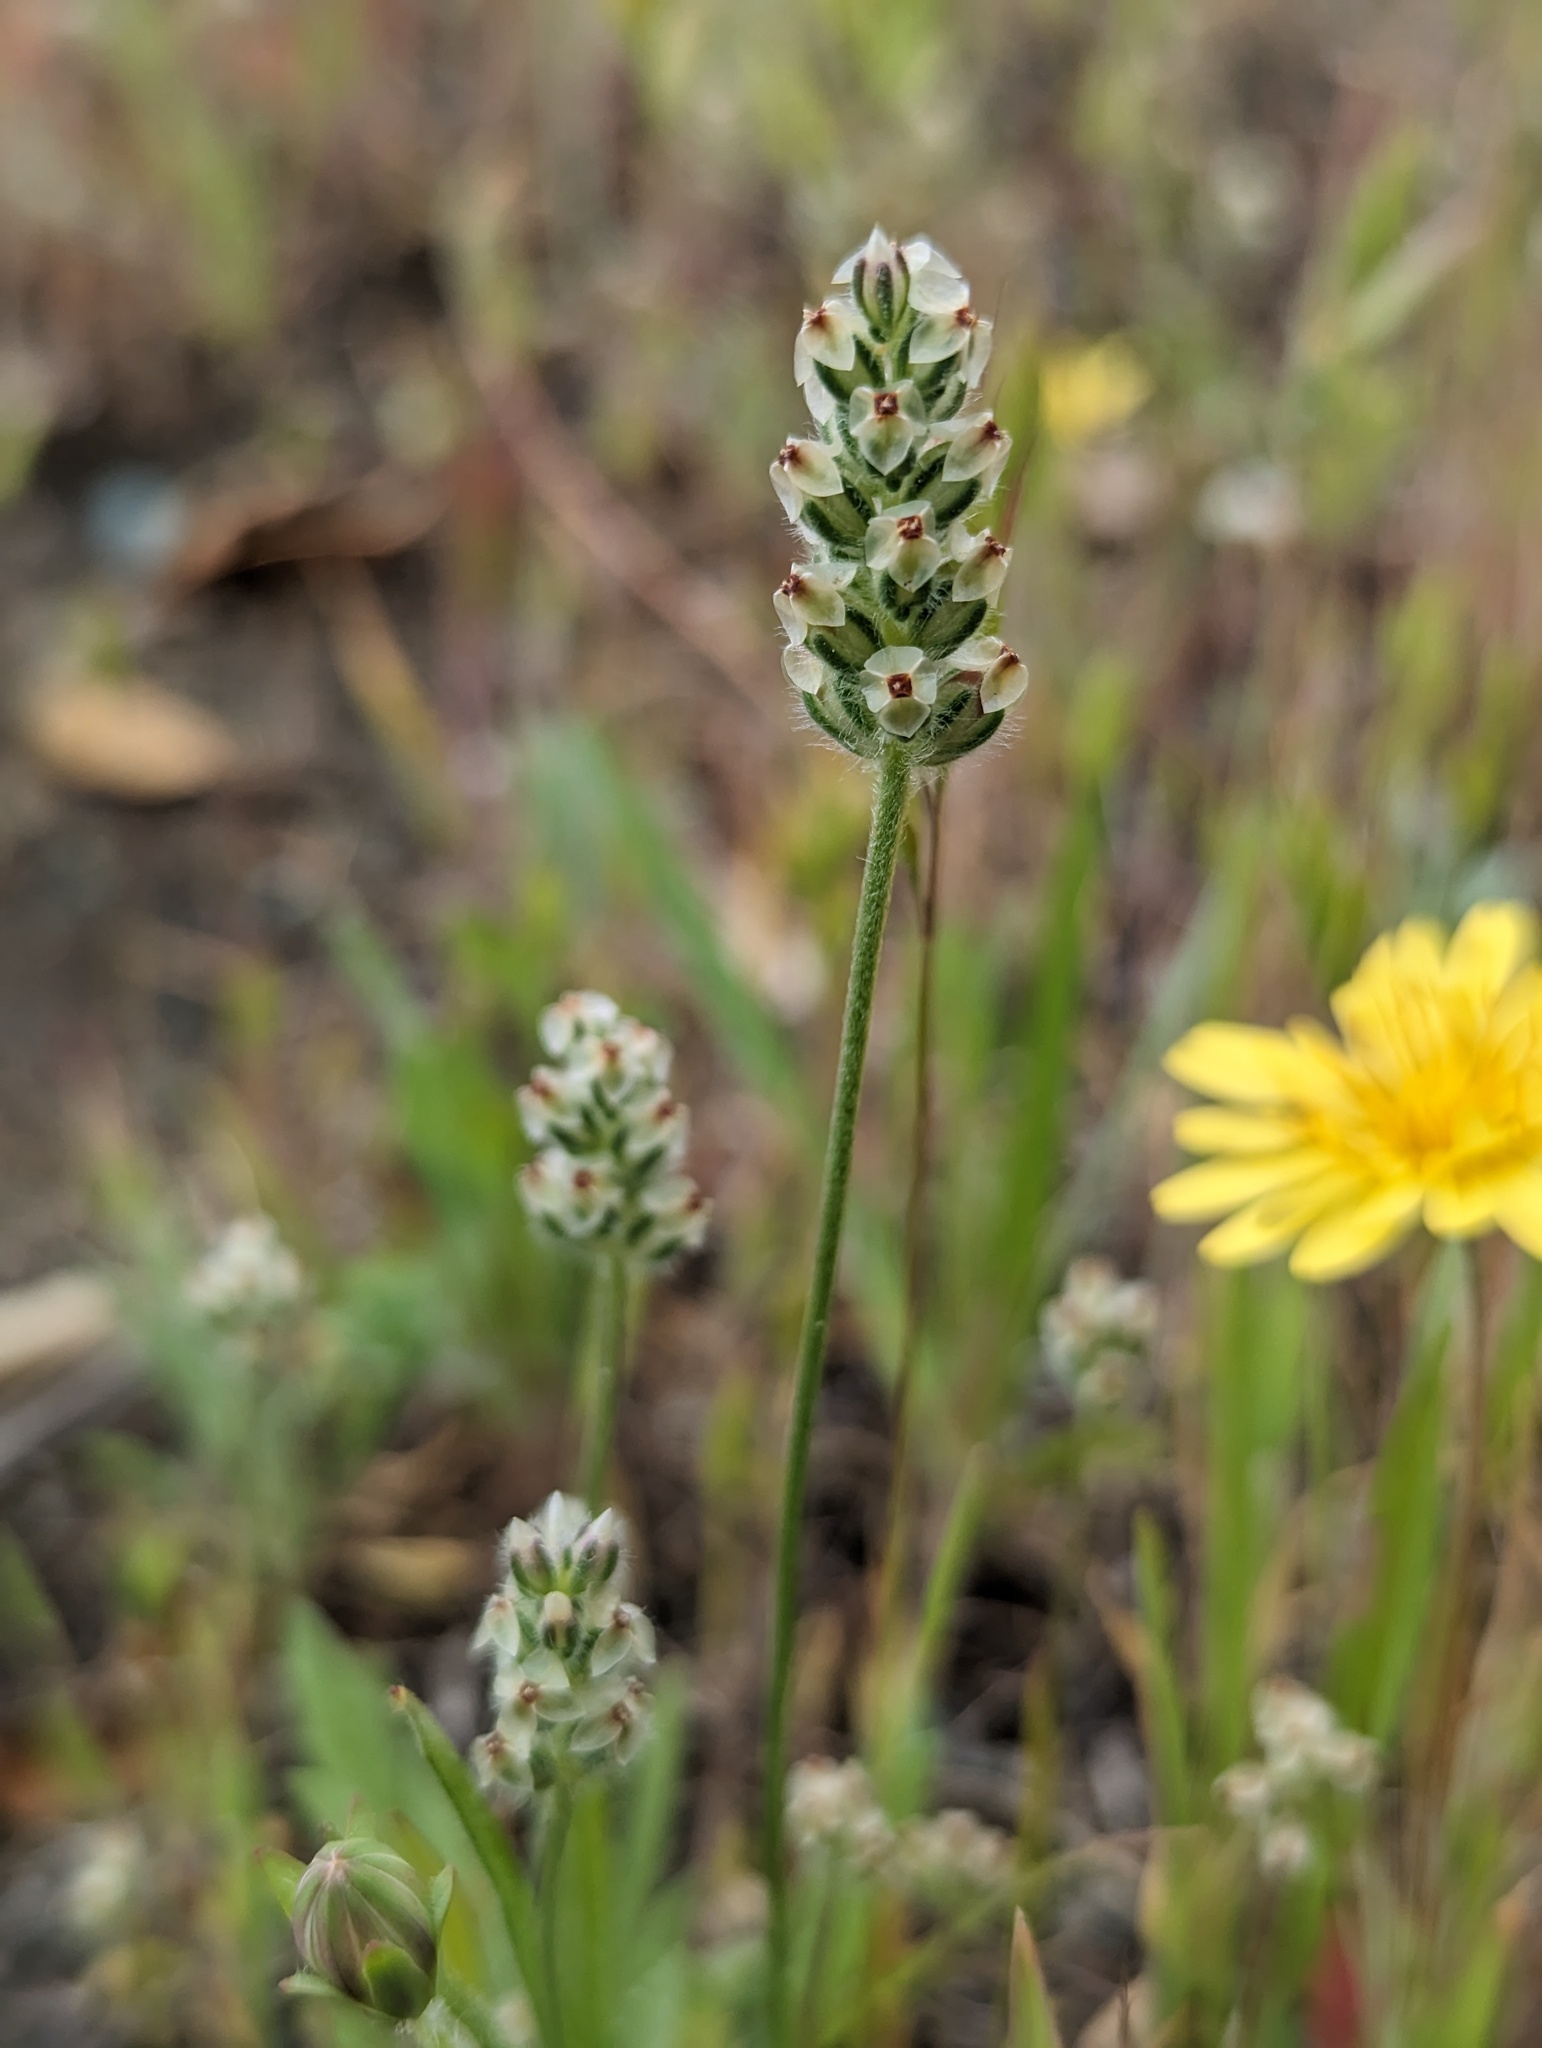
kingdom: Plantae
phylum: Tracheophyta
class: Magnoliopsida
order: Lamiales
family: Plantaginaceae
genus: Plantago
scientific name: Plantago erecta
